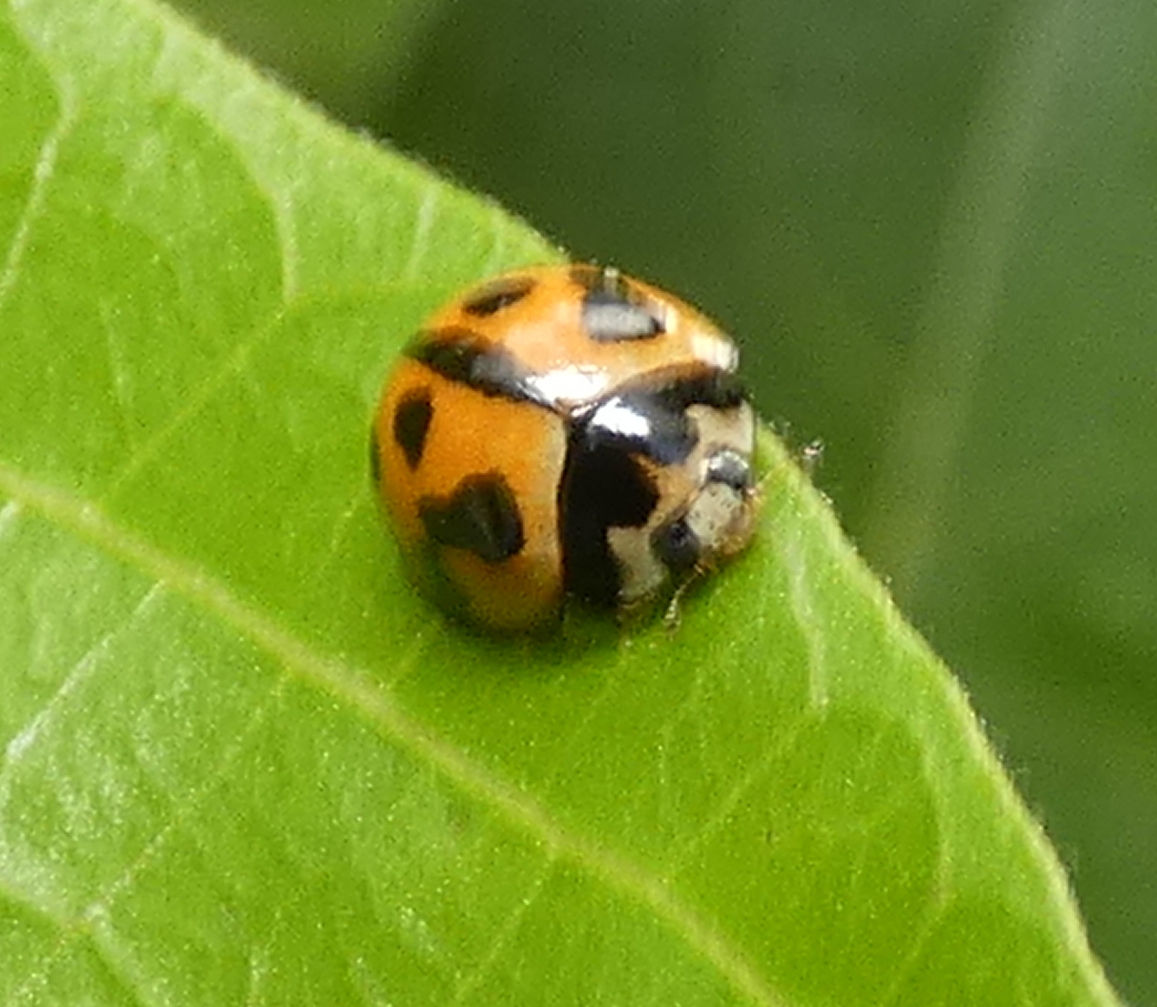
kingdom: Animalia
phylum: Arthropoda
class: Insecta
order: Coleoptera
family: Coccinellidae
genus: Coelophora
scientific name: Coelophora inaequalis
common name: Common australian lady beetle
